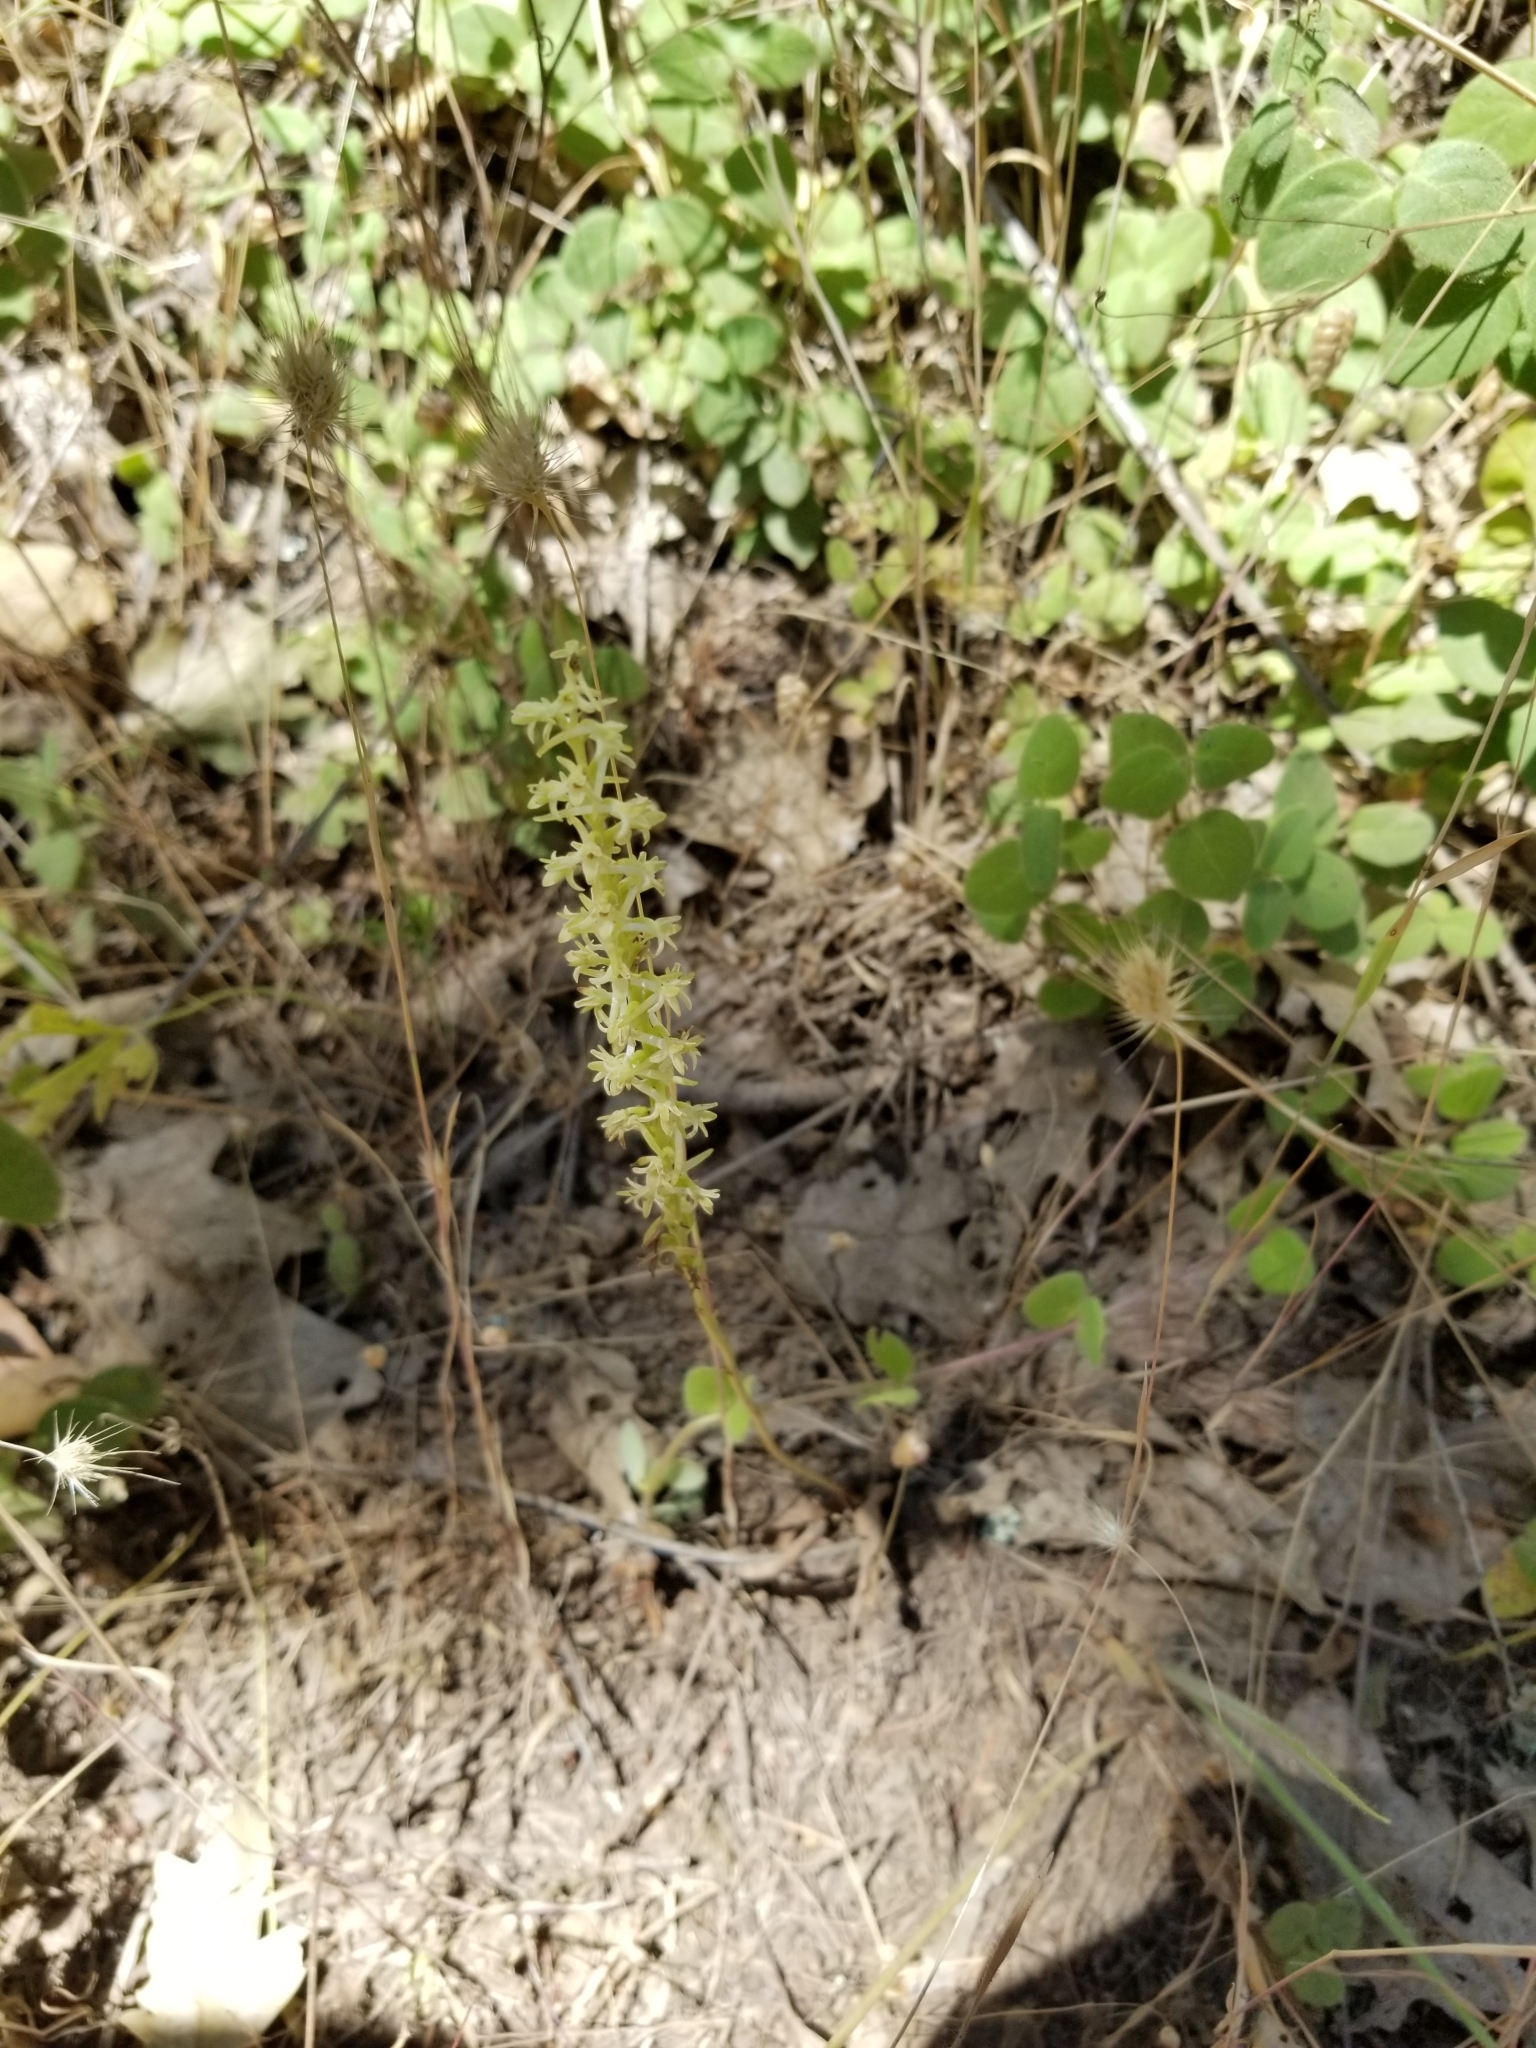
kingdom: Plantae
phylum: Tracheophyta
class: Liliopsida
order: Asparagales
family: Orchidaceae
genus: Platanthera
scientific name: Platanthera transversa
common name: Royal rein orchid
